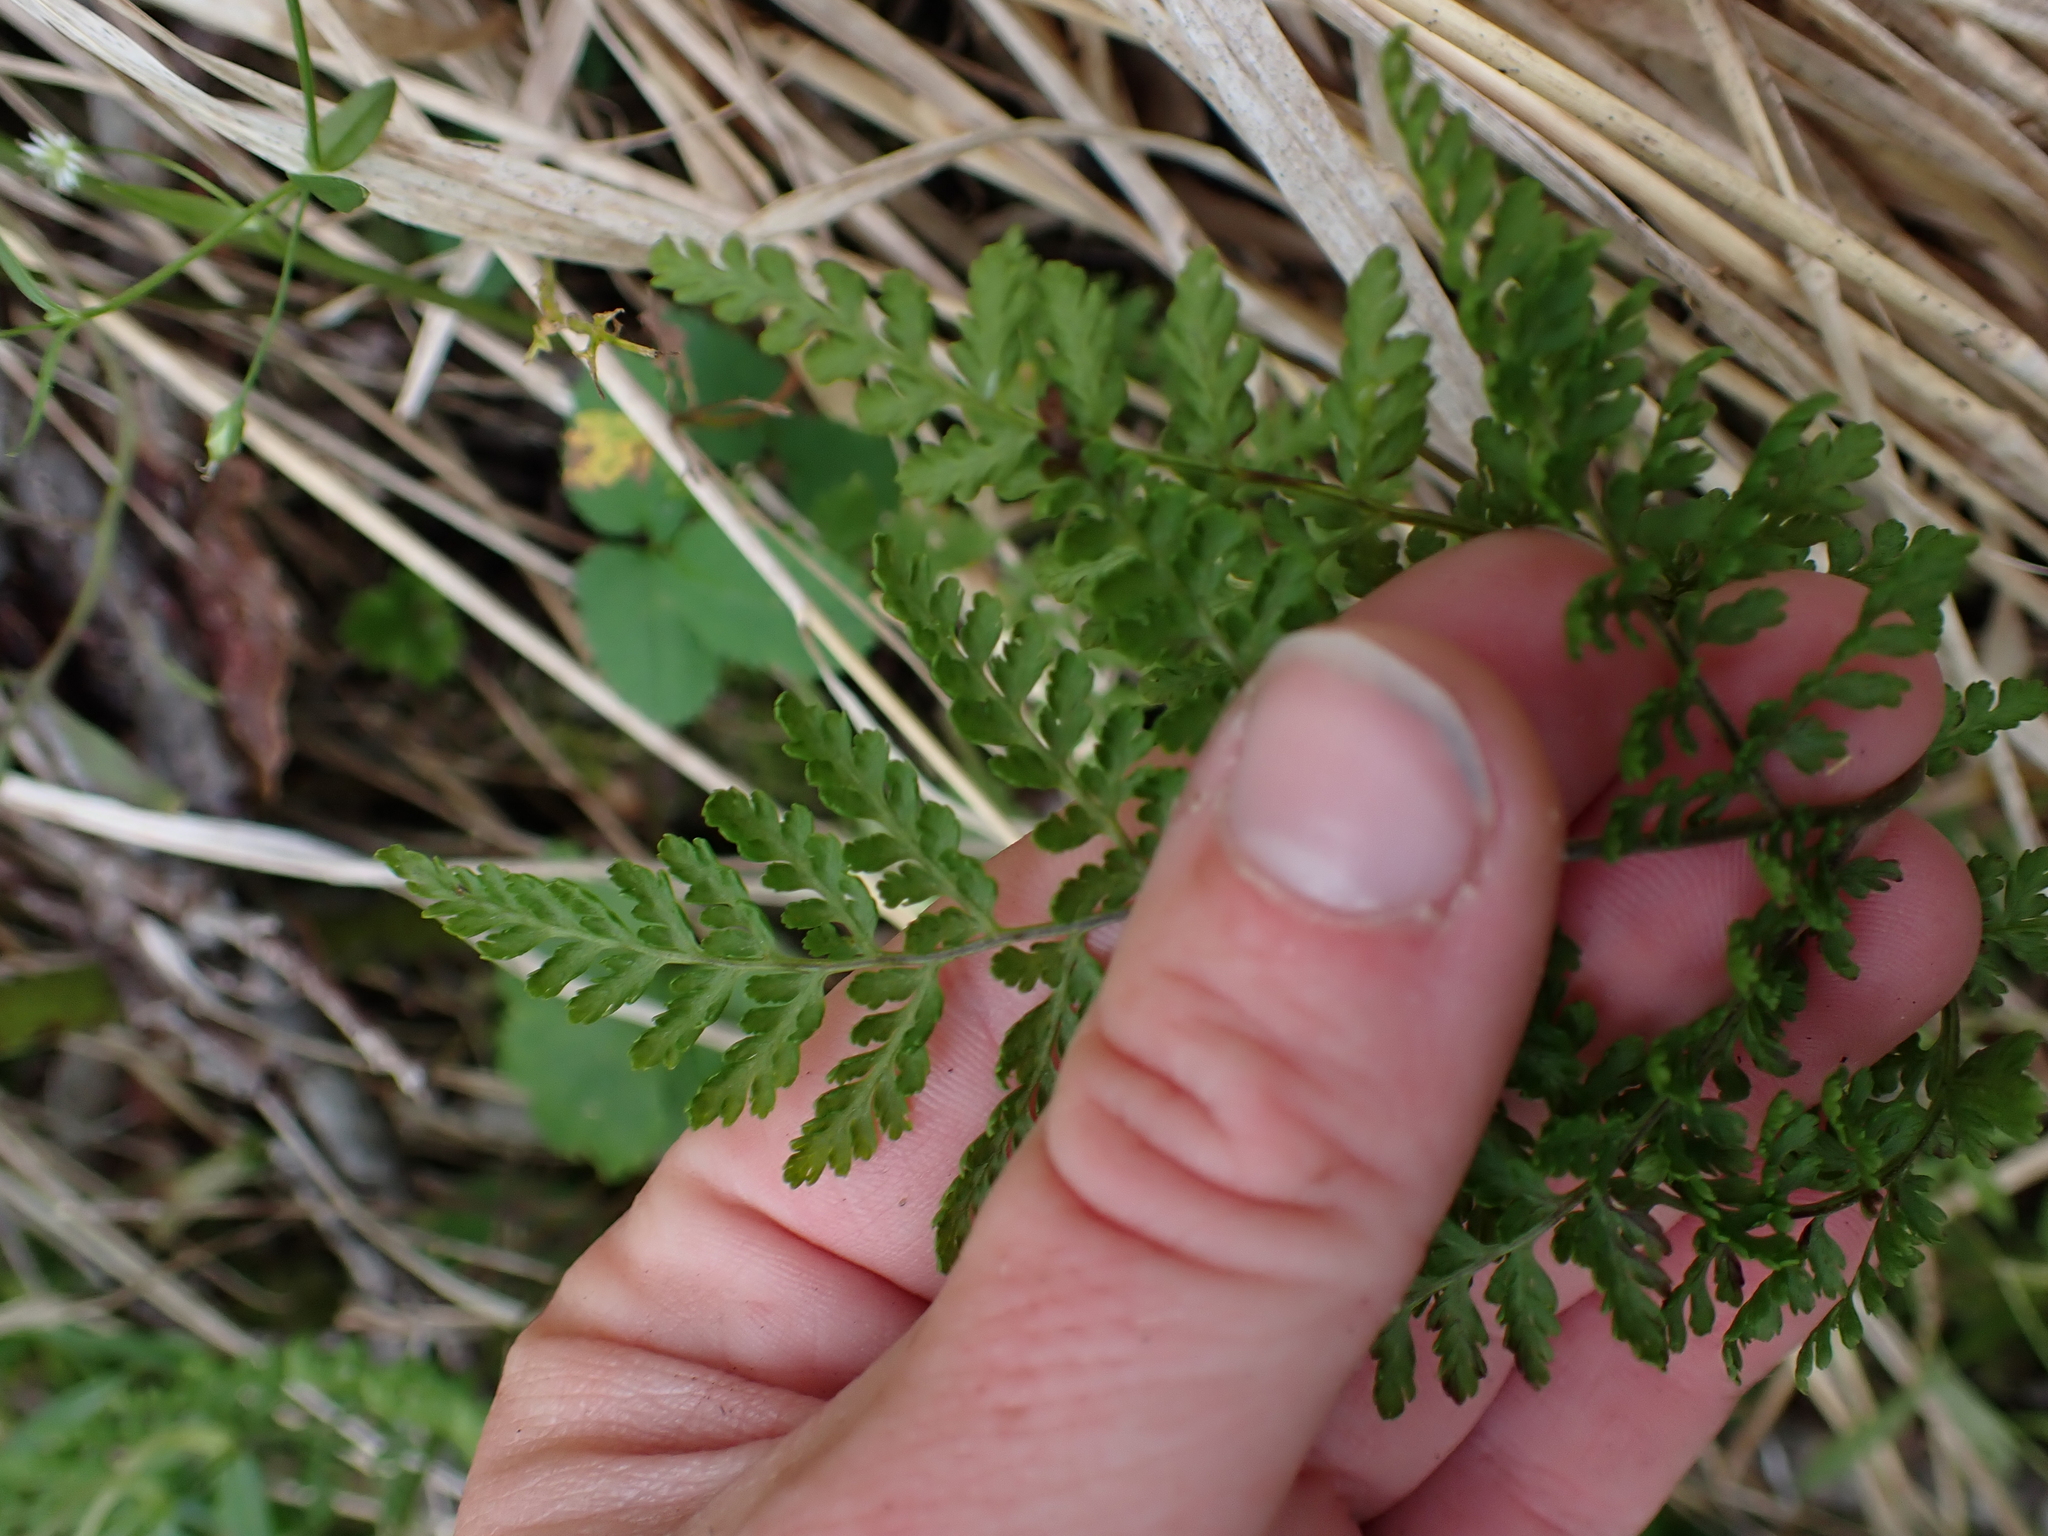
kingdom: Plantae
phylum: Tracheophyta
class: Polypodiopsida
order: Polypodiales
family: Cystopteridaceae
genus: Cystopteris
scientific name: Cystopteris montana
